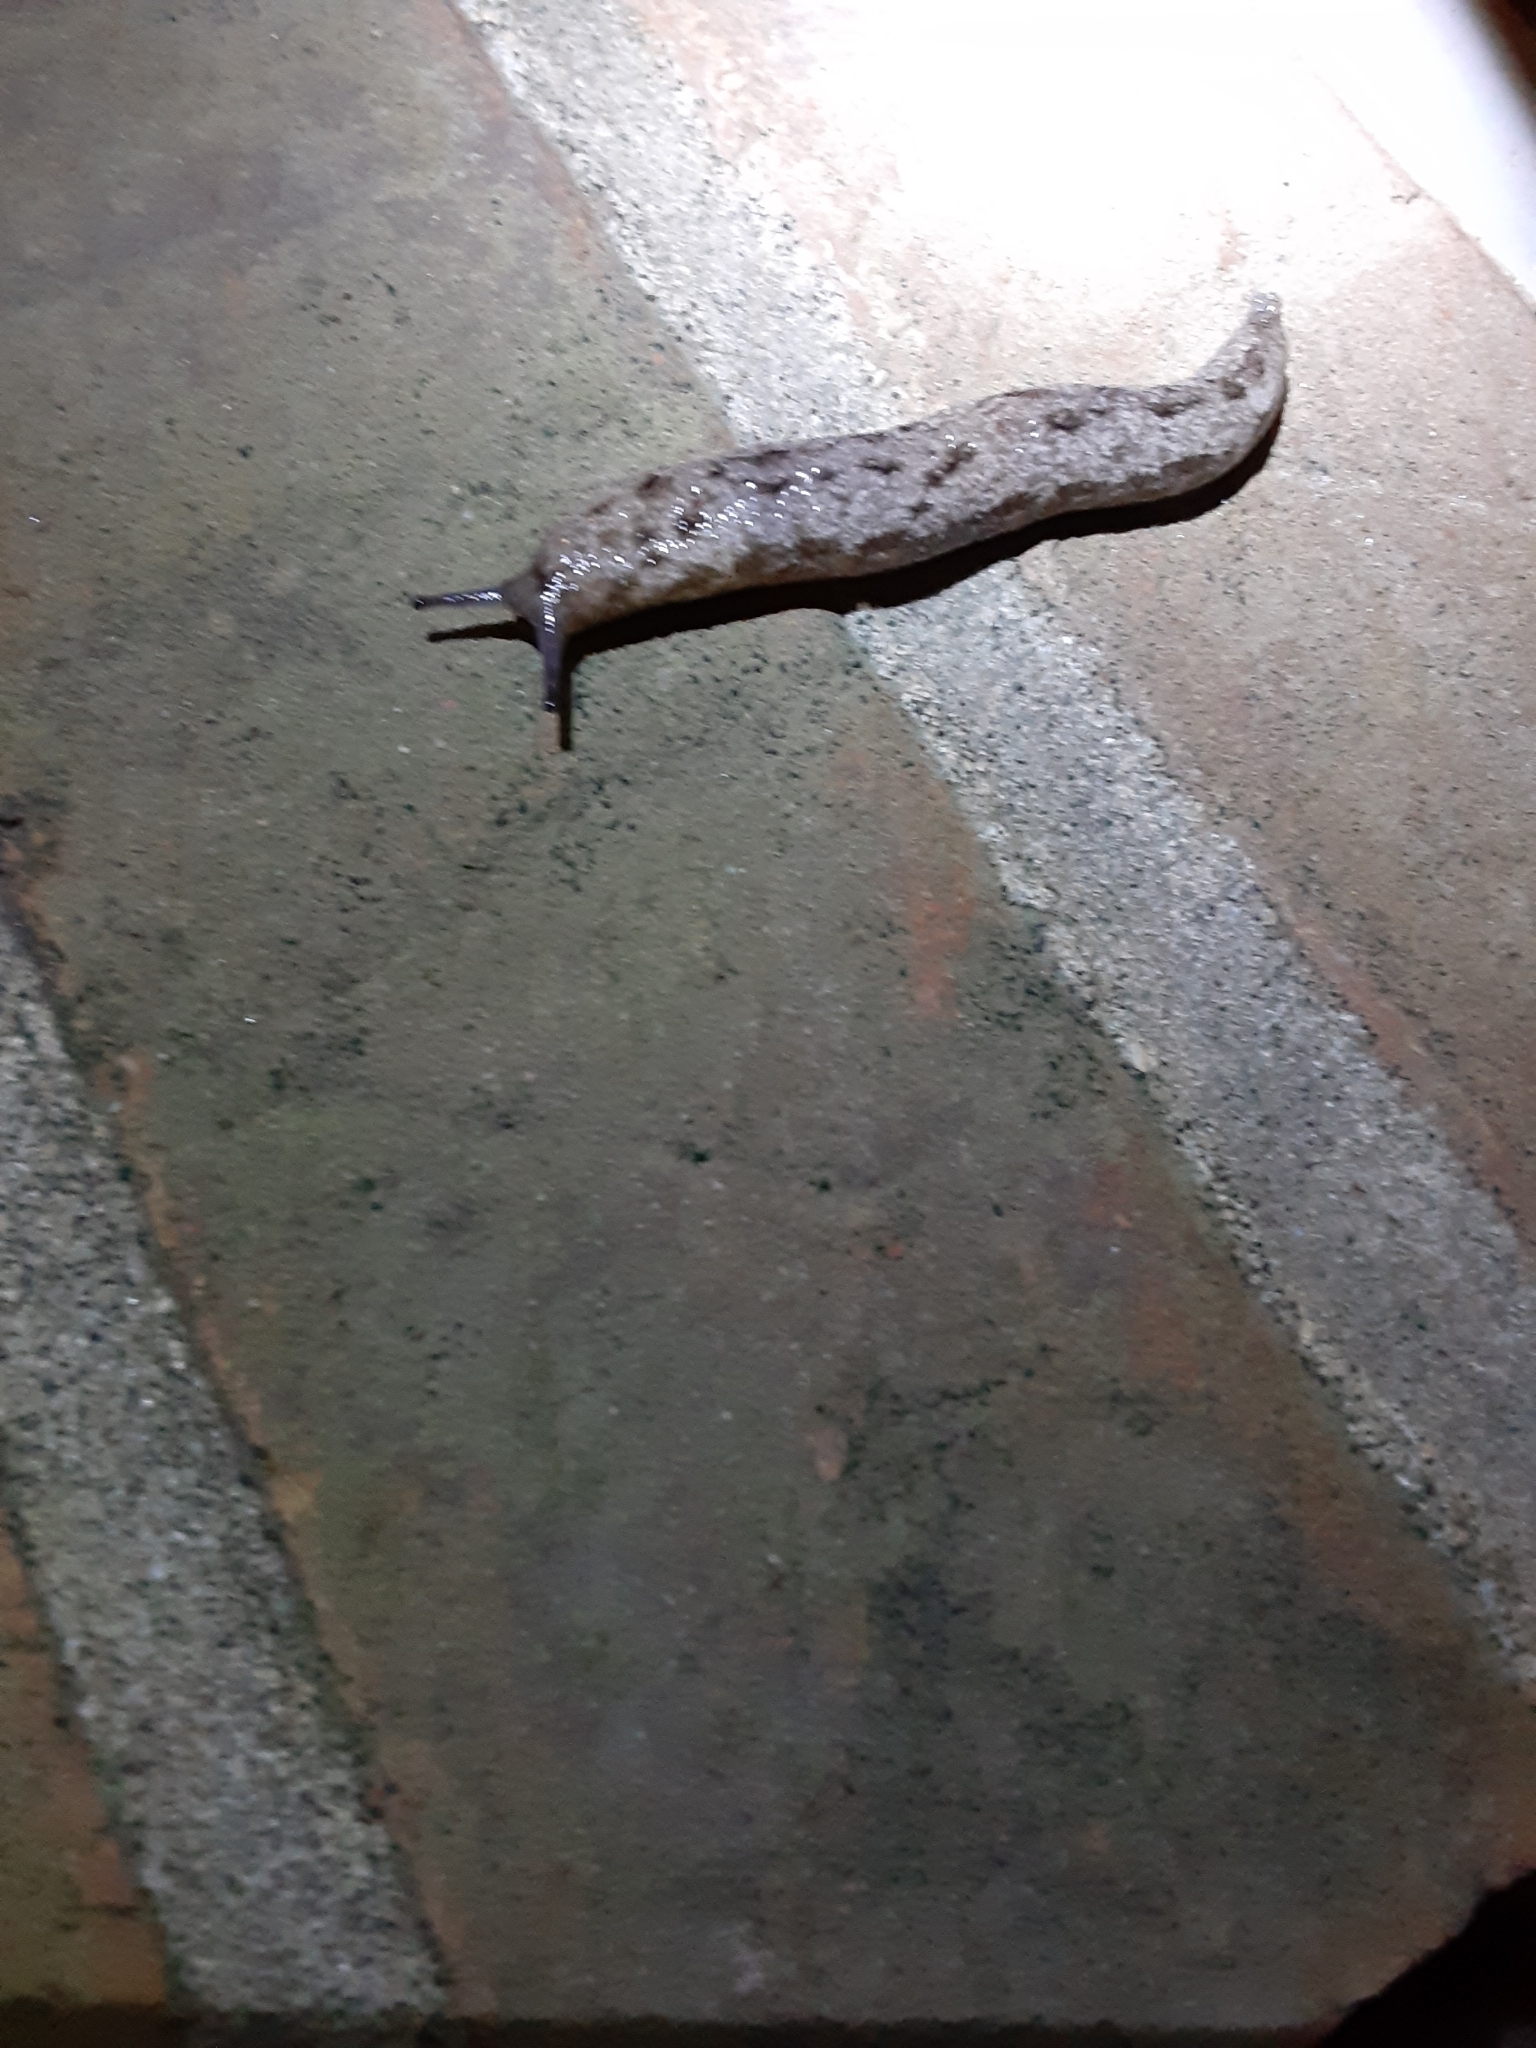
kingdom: Animalia
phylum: Mollusca
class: Gastropoda
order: Stylommatophora
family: Philomycidae
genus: Megapallifera
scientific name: Megapallifera mutabilis
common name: Changeable mantleslug
